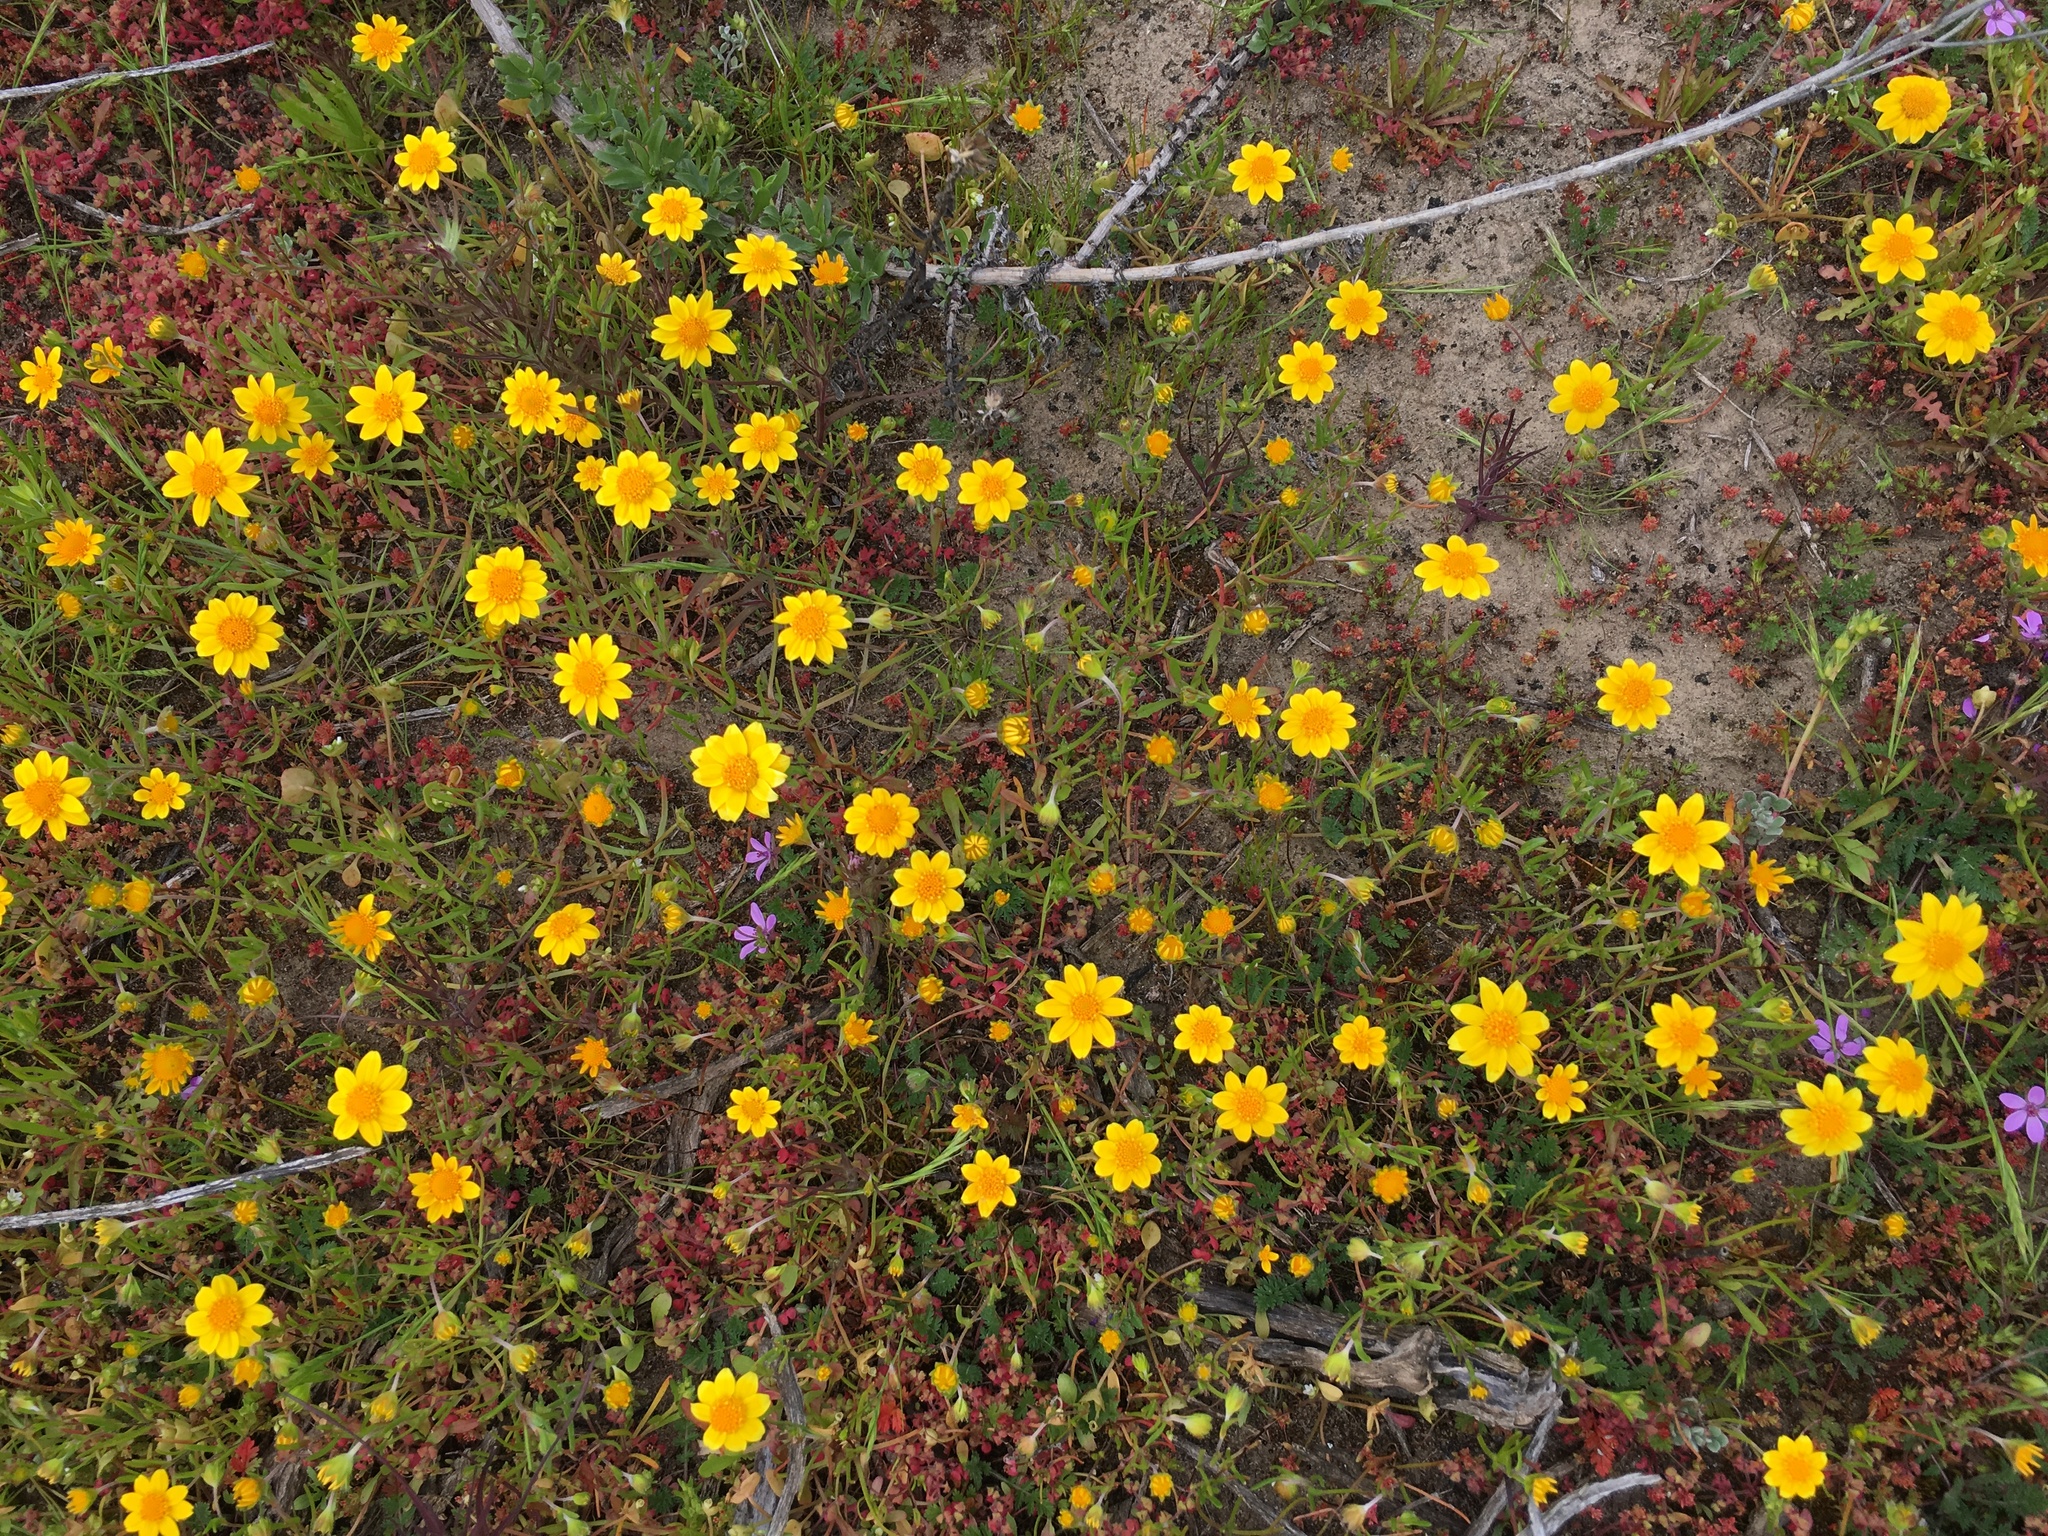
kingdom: Plantae
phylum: Tracheophyta
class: Magnoliopsida
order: Asterales
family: Asteraceae
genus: Lasthenia
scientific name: Lasthenia gracilis
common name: Common goldfields
